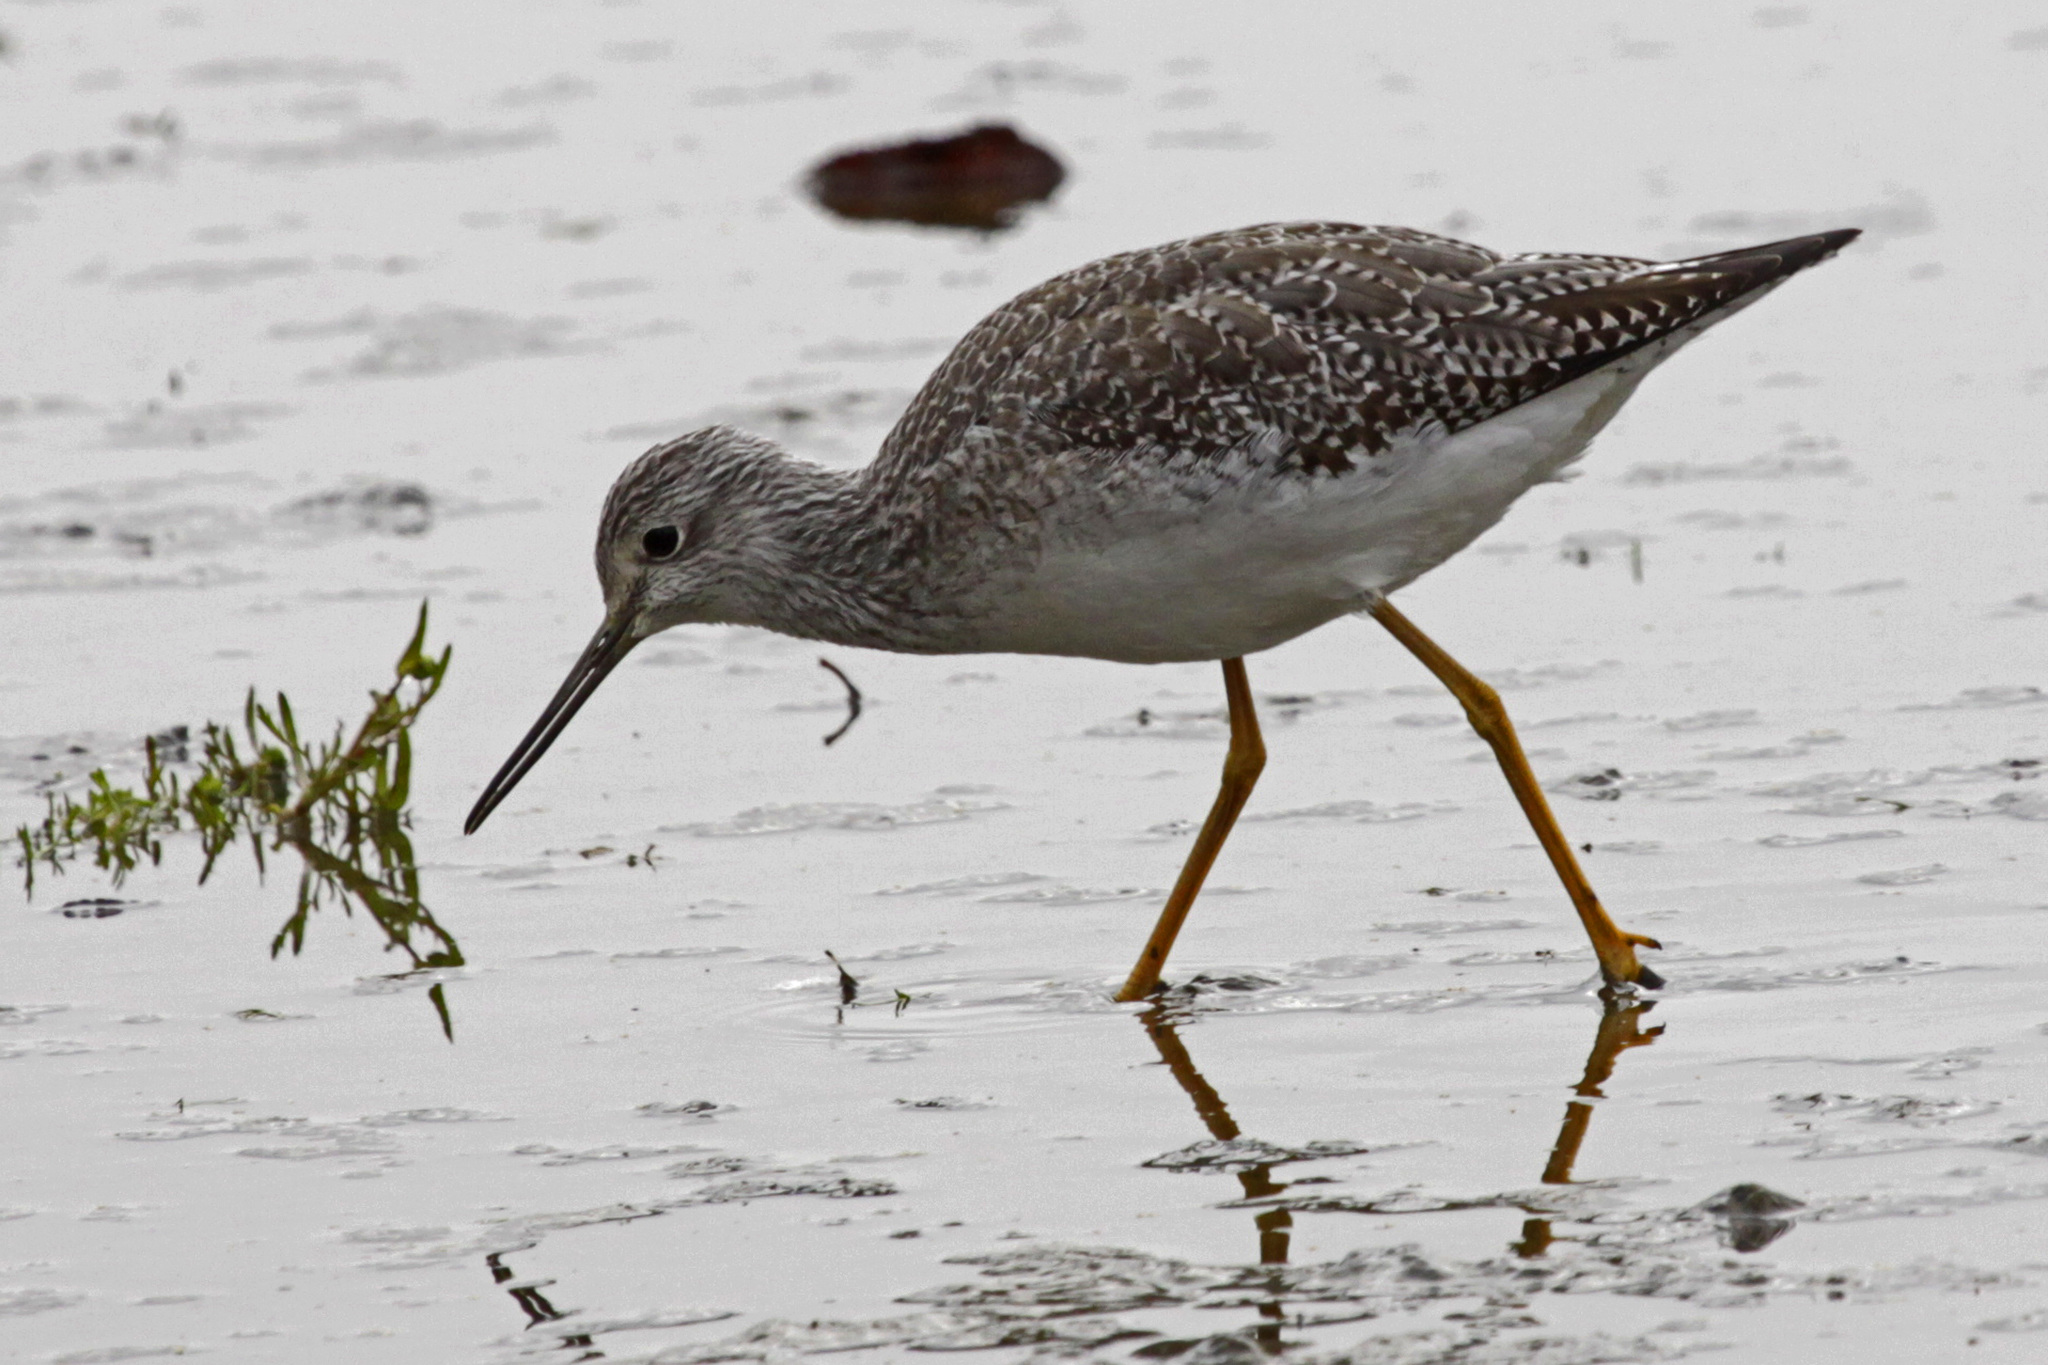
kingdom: Animalia
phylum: Chordata
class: Aves
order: Charadriiformes
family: Scolopacidae
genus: Tringa
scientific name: Tringa melanoleuca
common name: Greater yellowlegs
